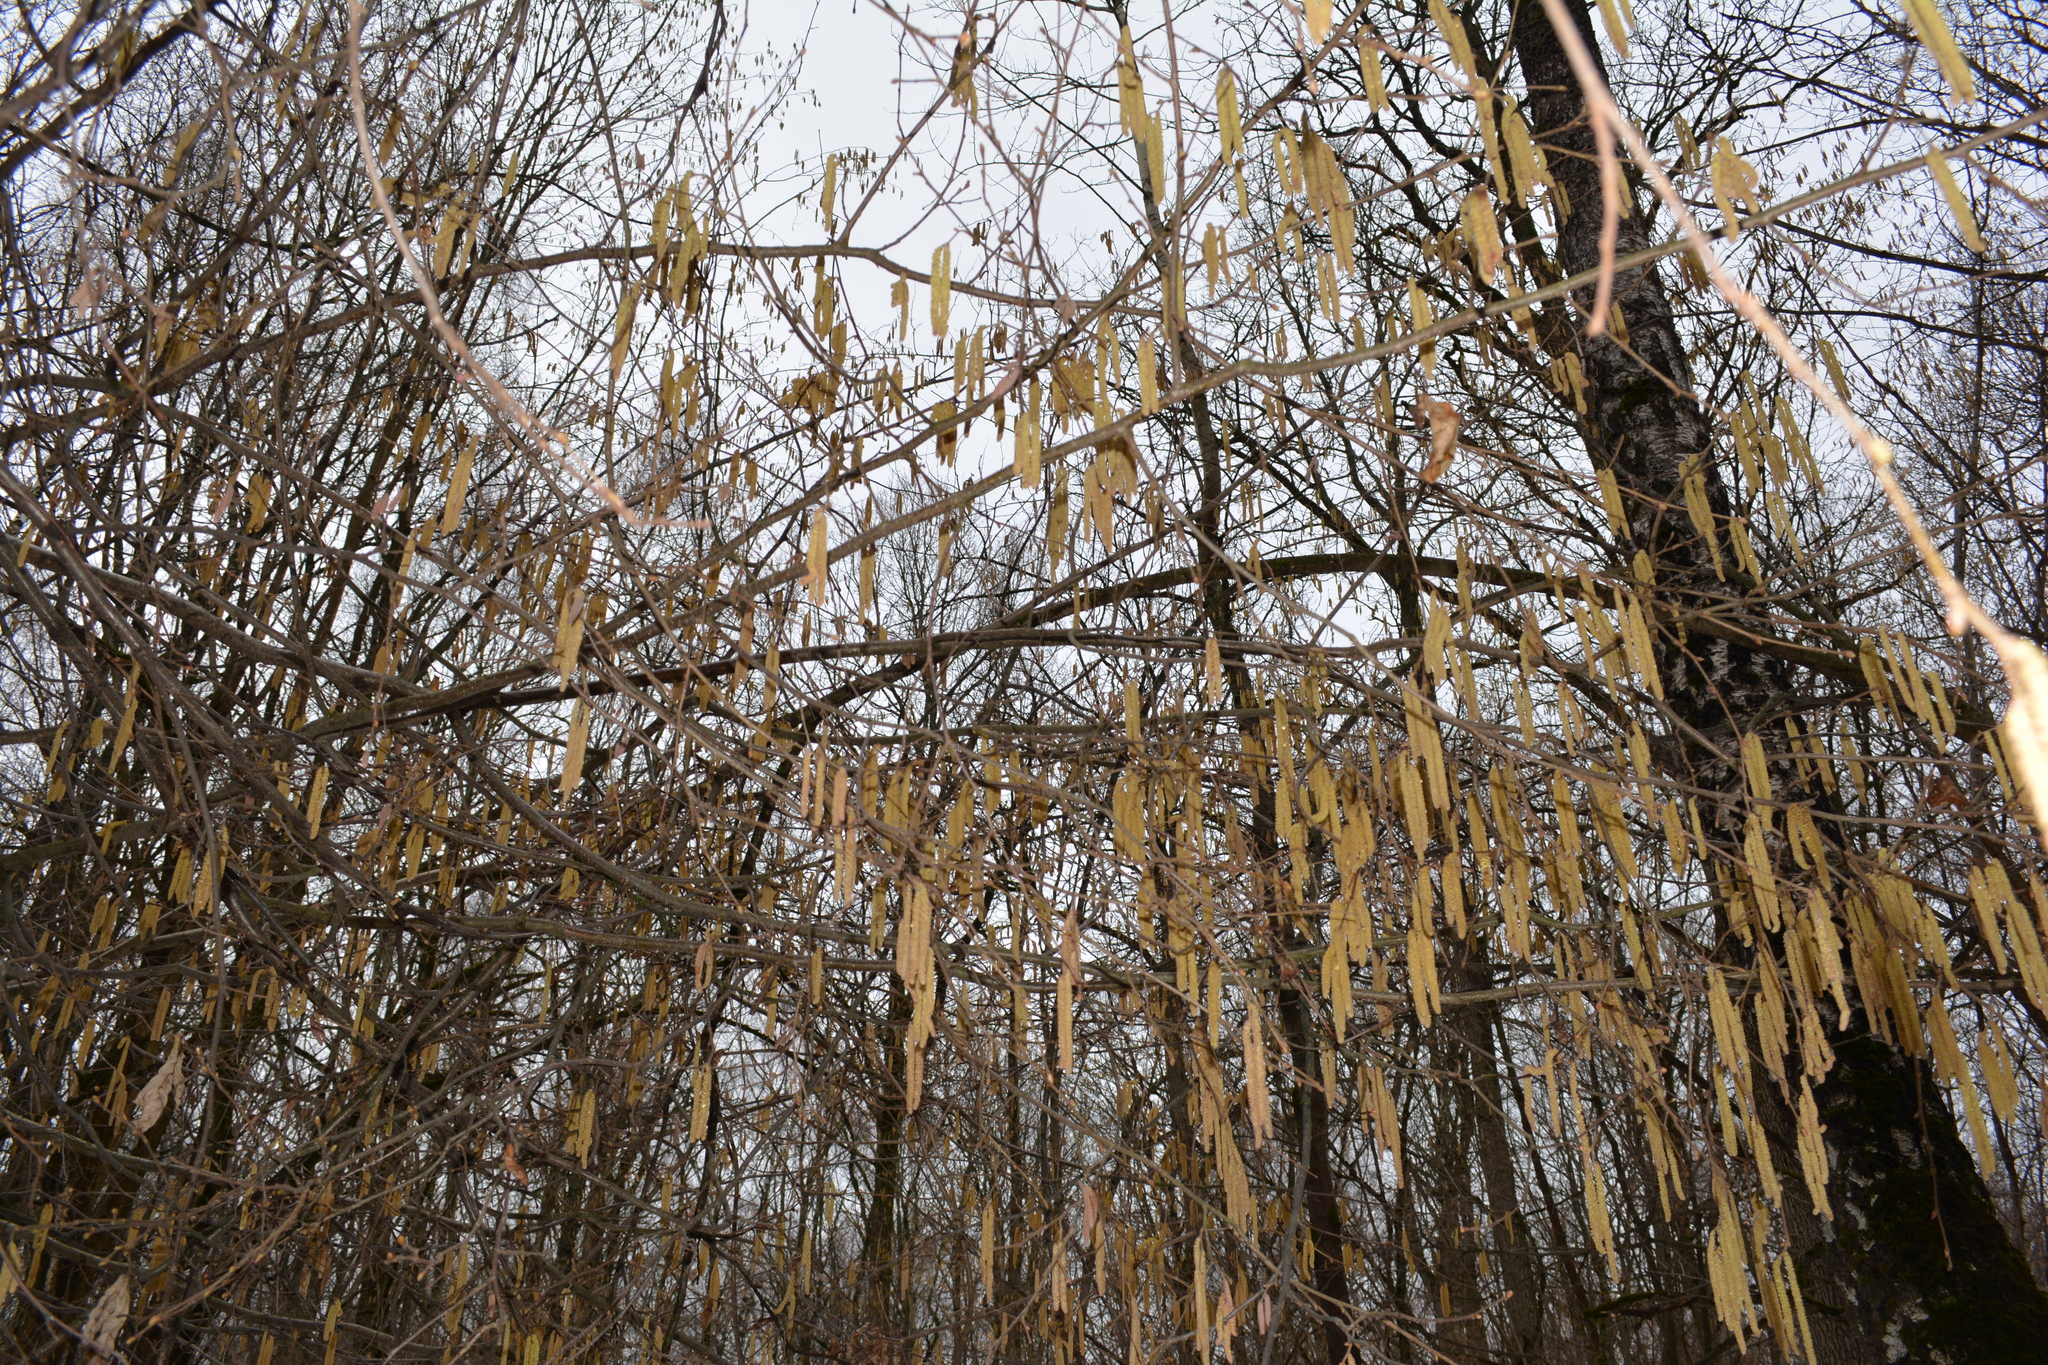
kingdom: Plantae
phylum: Tracheophyta
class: Magnoliopsida
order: Fagales
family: Betulaceae
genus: Corylus
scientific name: Corylus avellana
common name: European hazel
